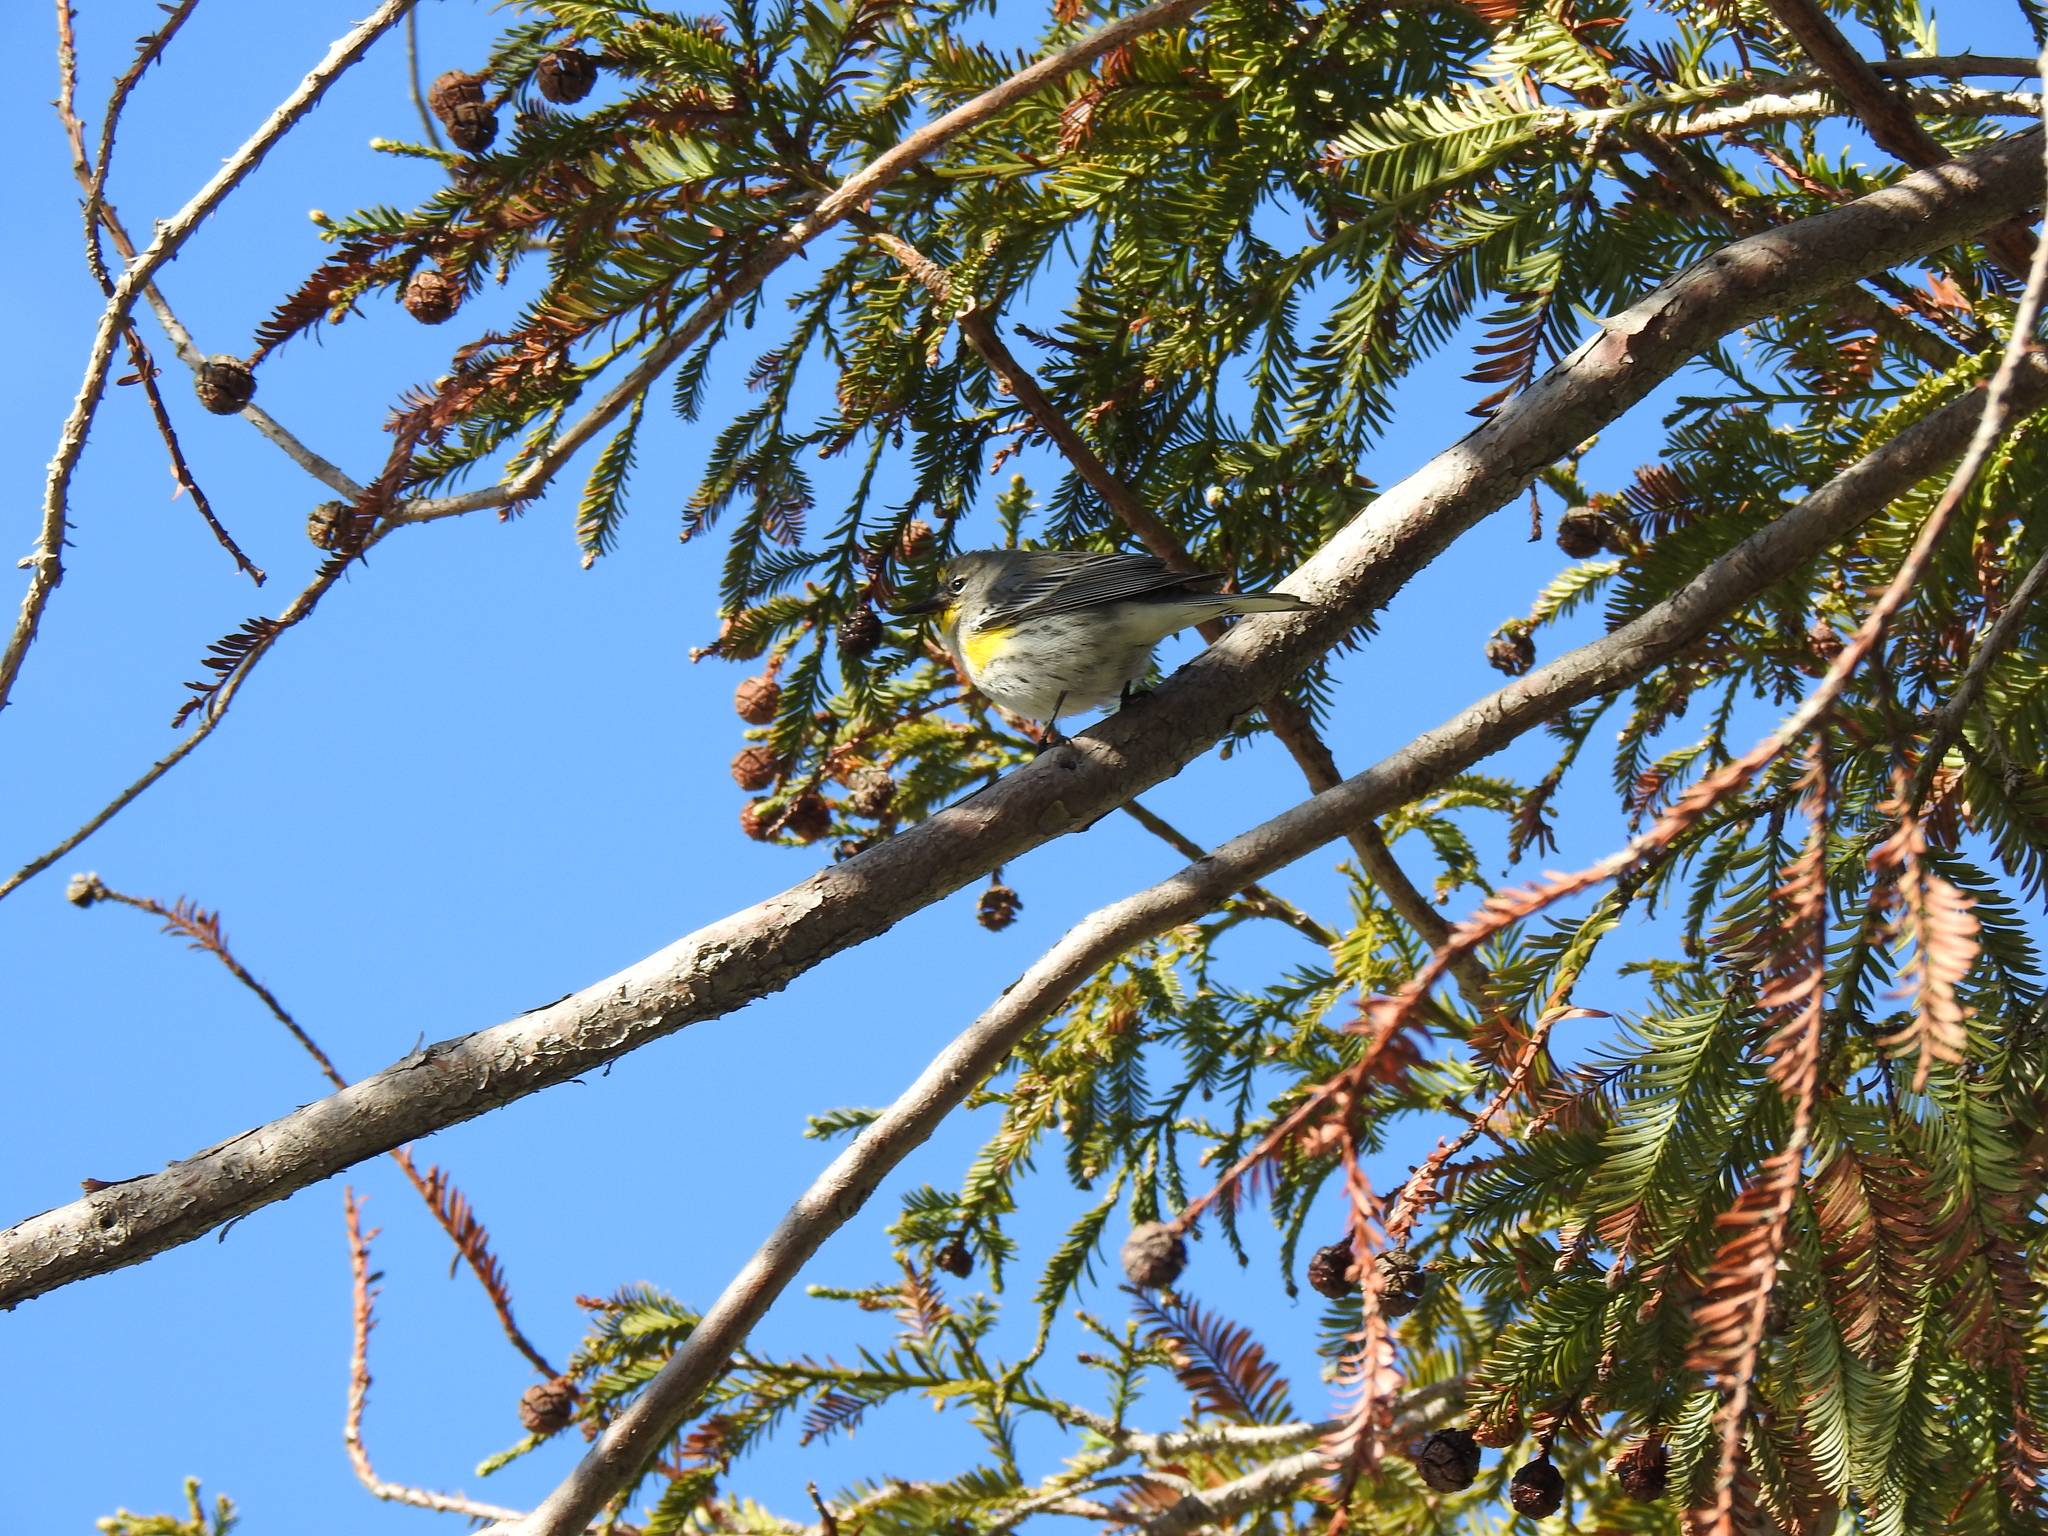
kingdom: Animalia
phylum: Chordata
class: Aves
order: Passeriformes
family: Parulidae
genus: Setophaga
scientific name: Setophaga coronata
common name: Myrtle warbler
